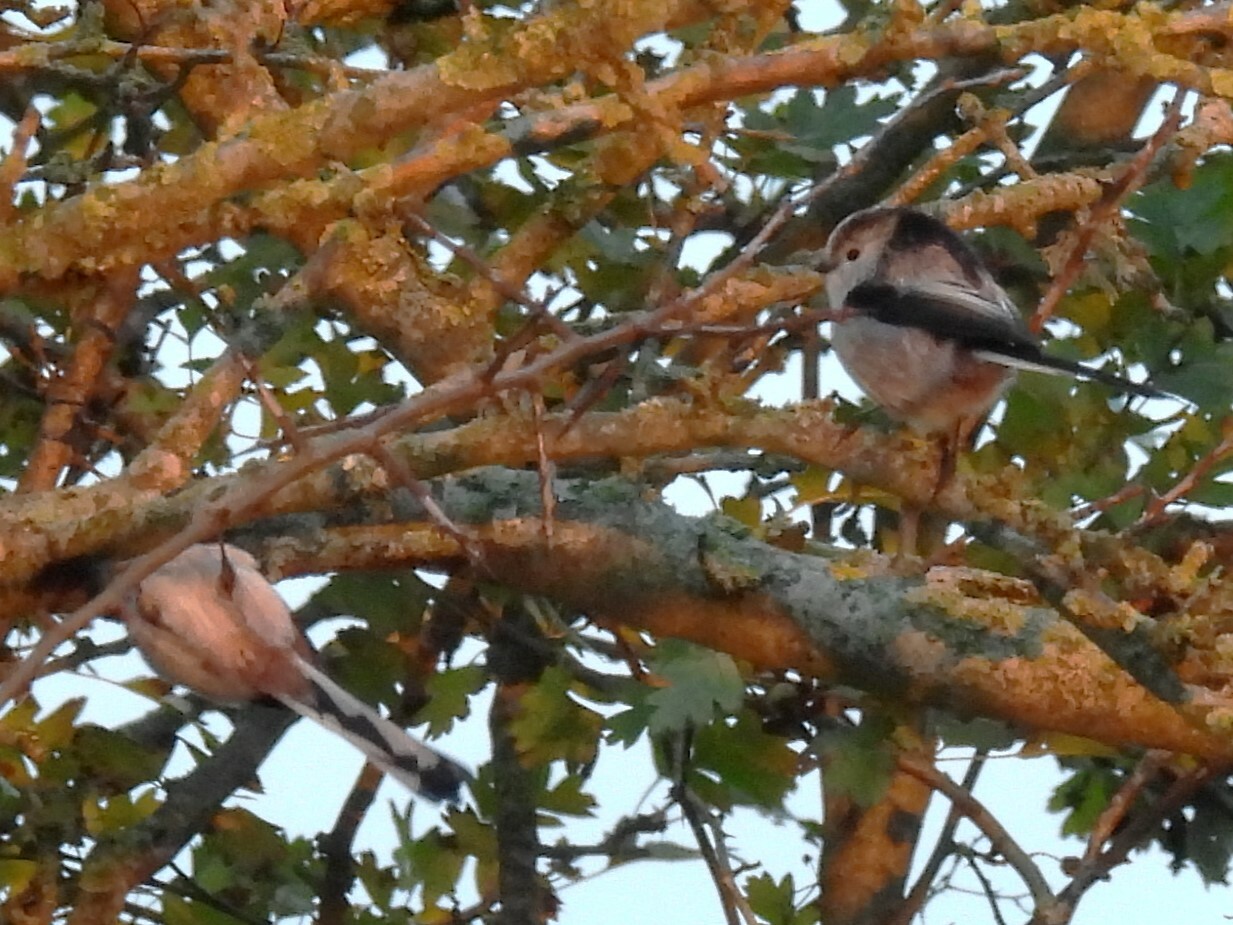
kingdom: Animalia
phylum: Chordata
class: Aves
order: Passeriformes
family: Aegithalidae
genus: Aegithalos
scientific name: Aegithalos caudatus
